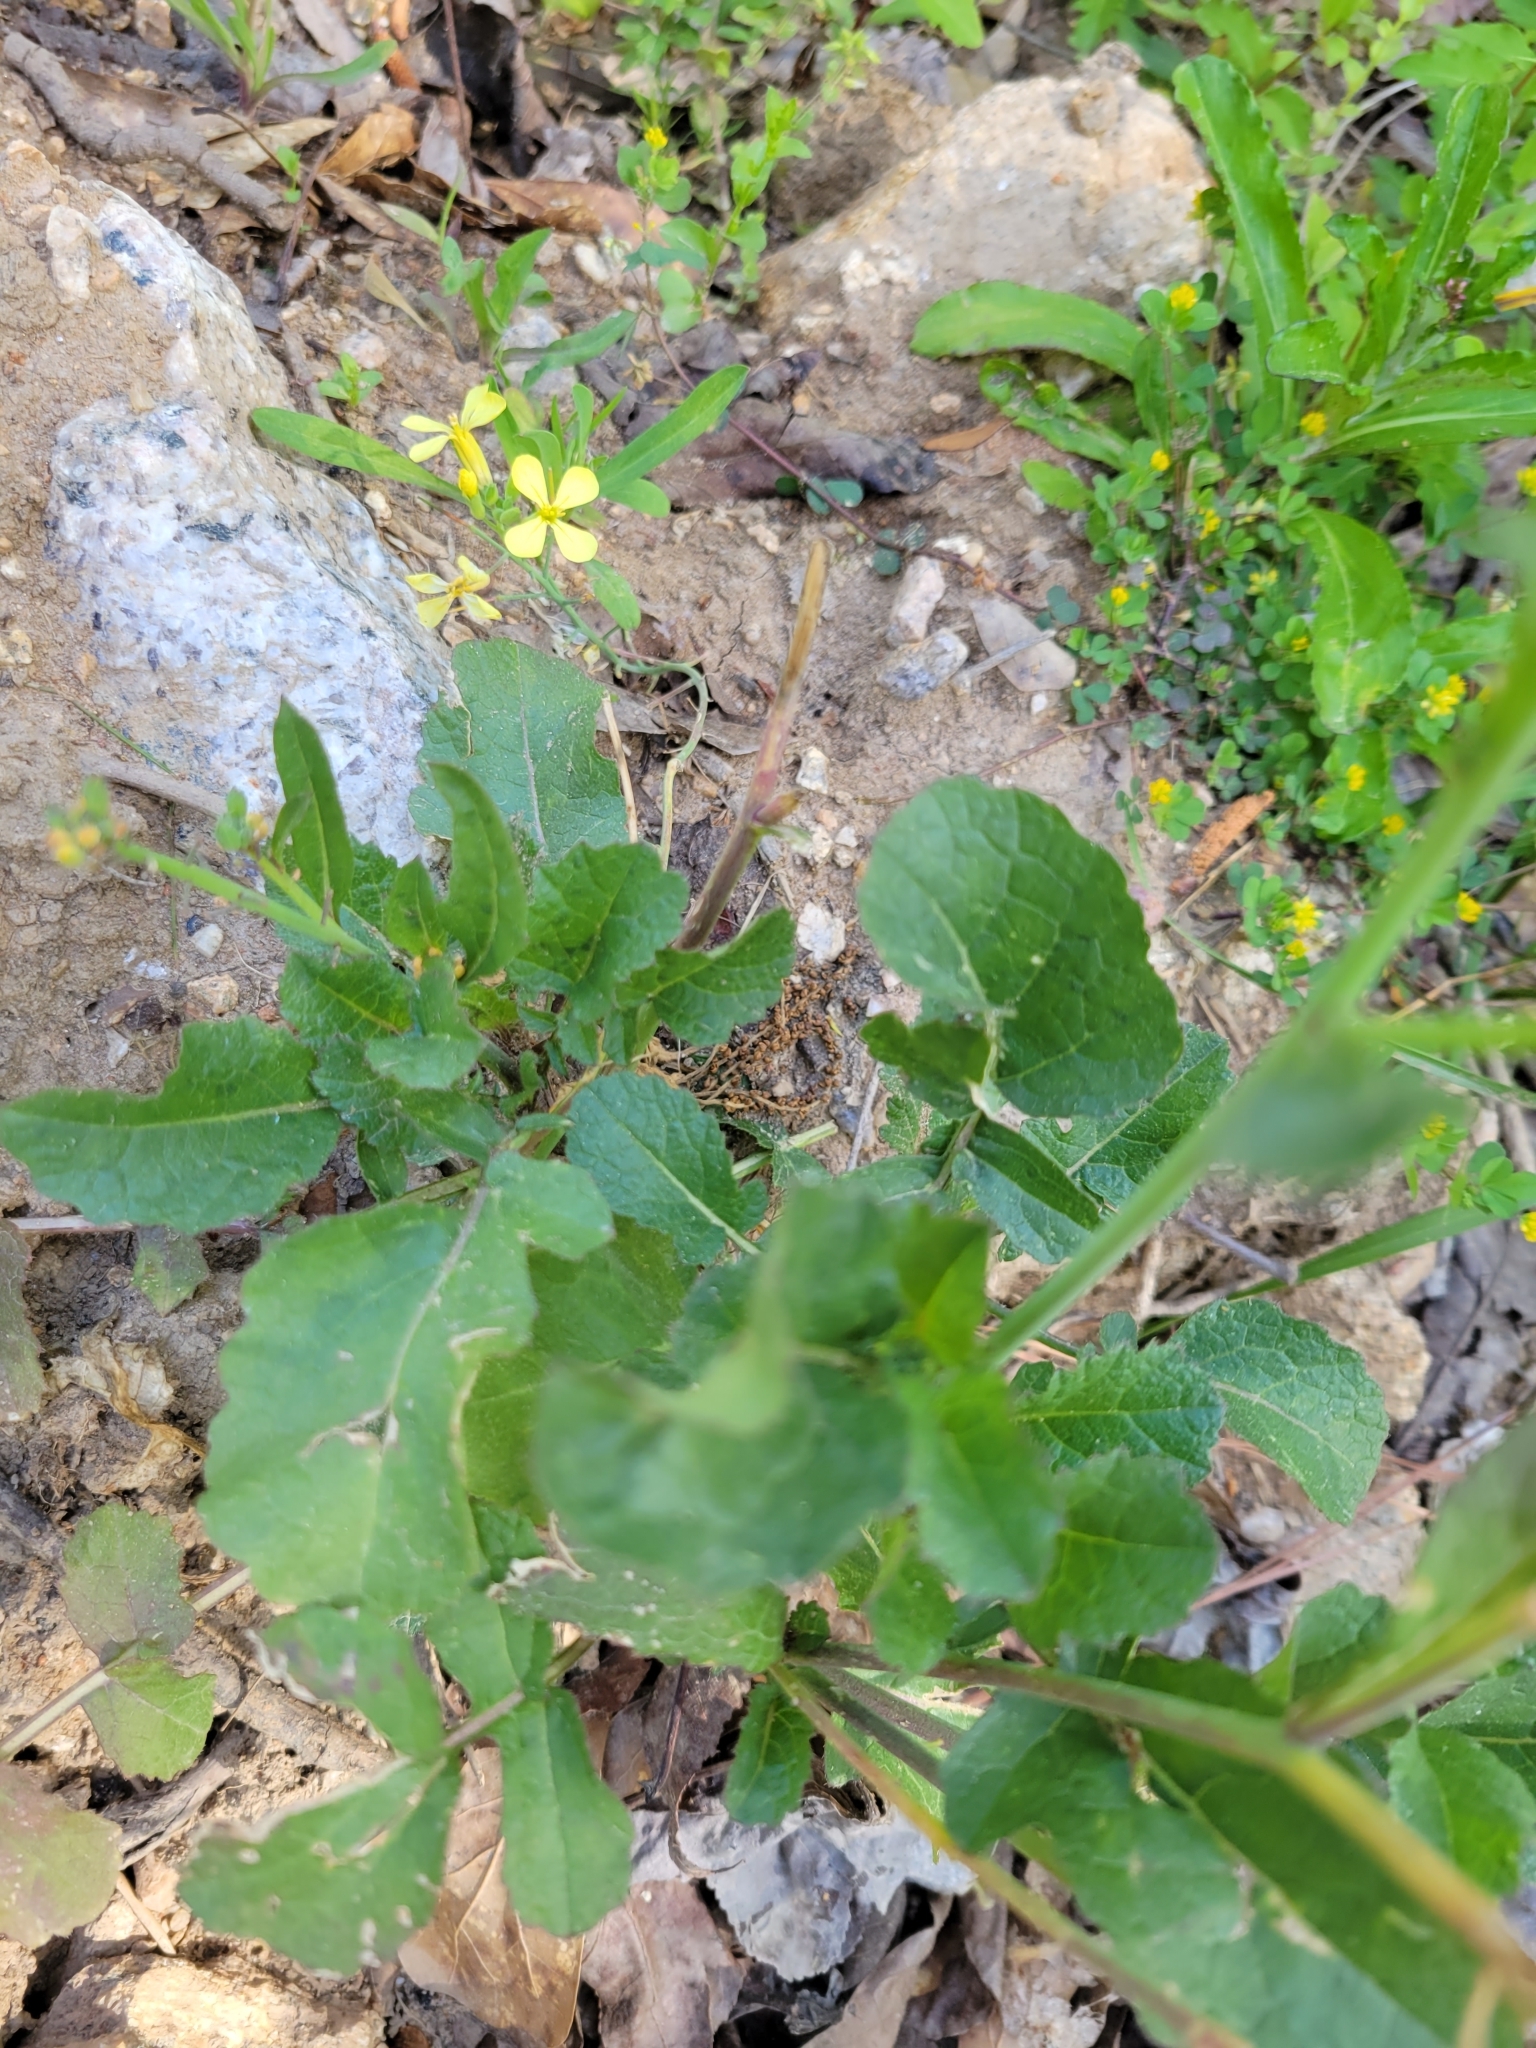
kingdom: Plantae
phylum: Tracheophyta
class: Magnoliopsida
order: Brassicales
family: Brassicaceae
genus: Raphanus
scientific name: Raphanus raphanistrum
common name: Wild radish
